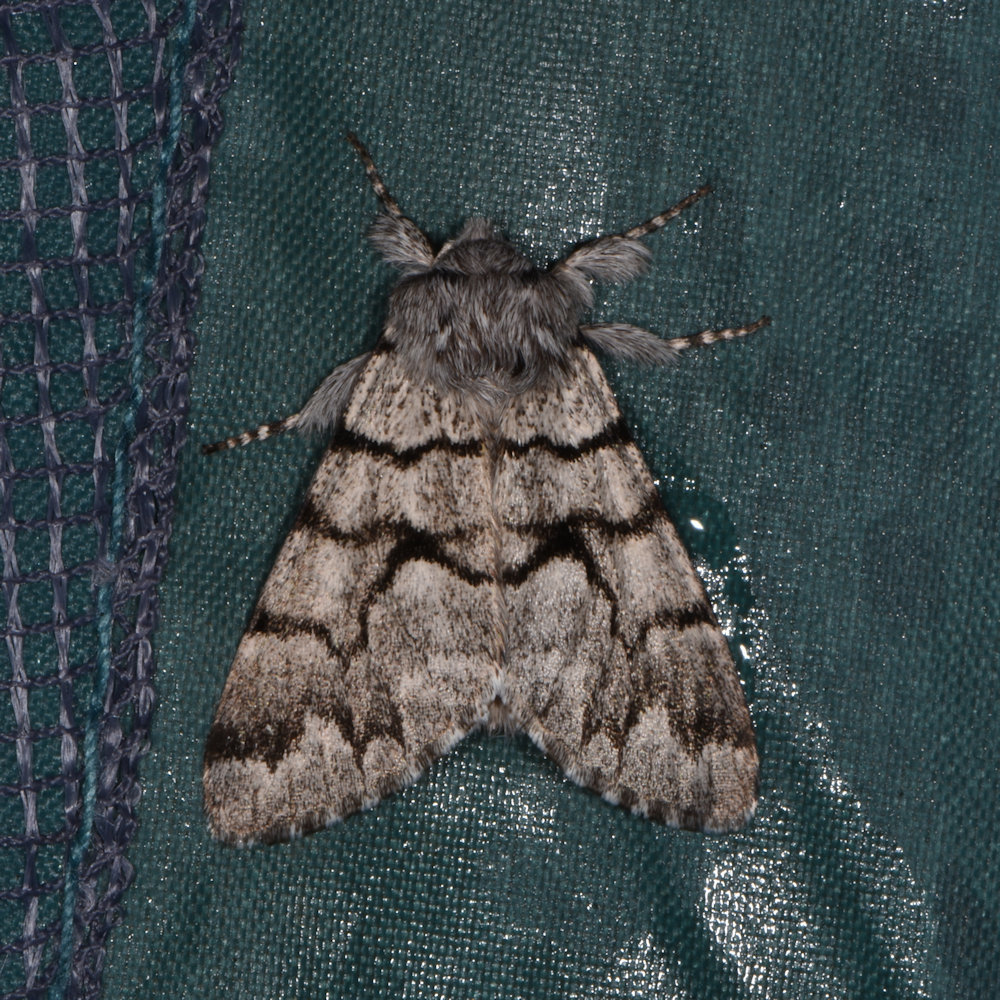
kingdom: Animalia
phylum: Arthropoda
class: Insecta
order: Lepidoptera
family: Noctuidae
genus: Panthea
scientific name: Panthea furcilla
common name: Eastern panthea moth
